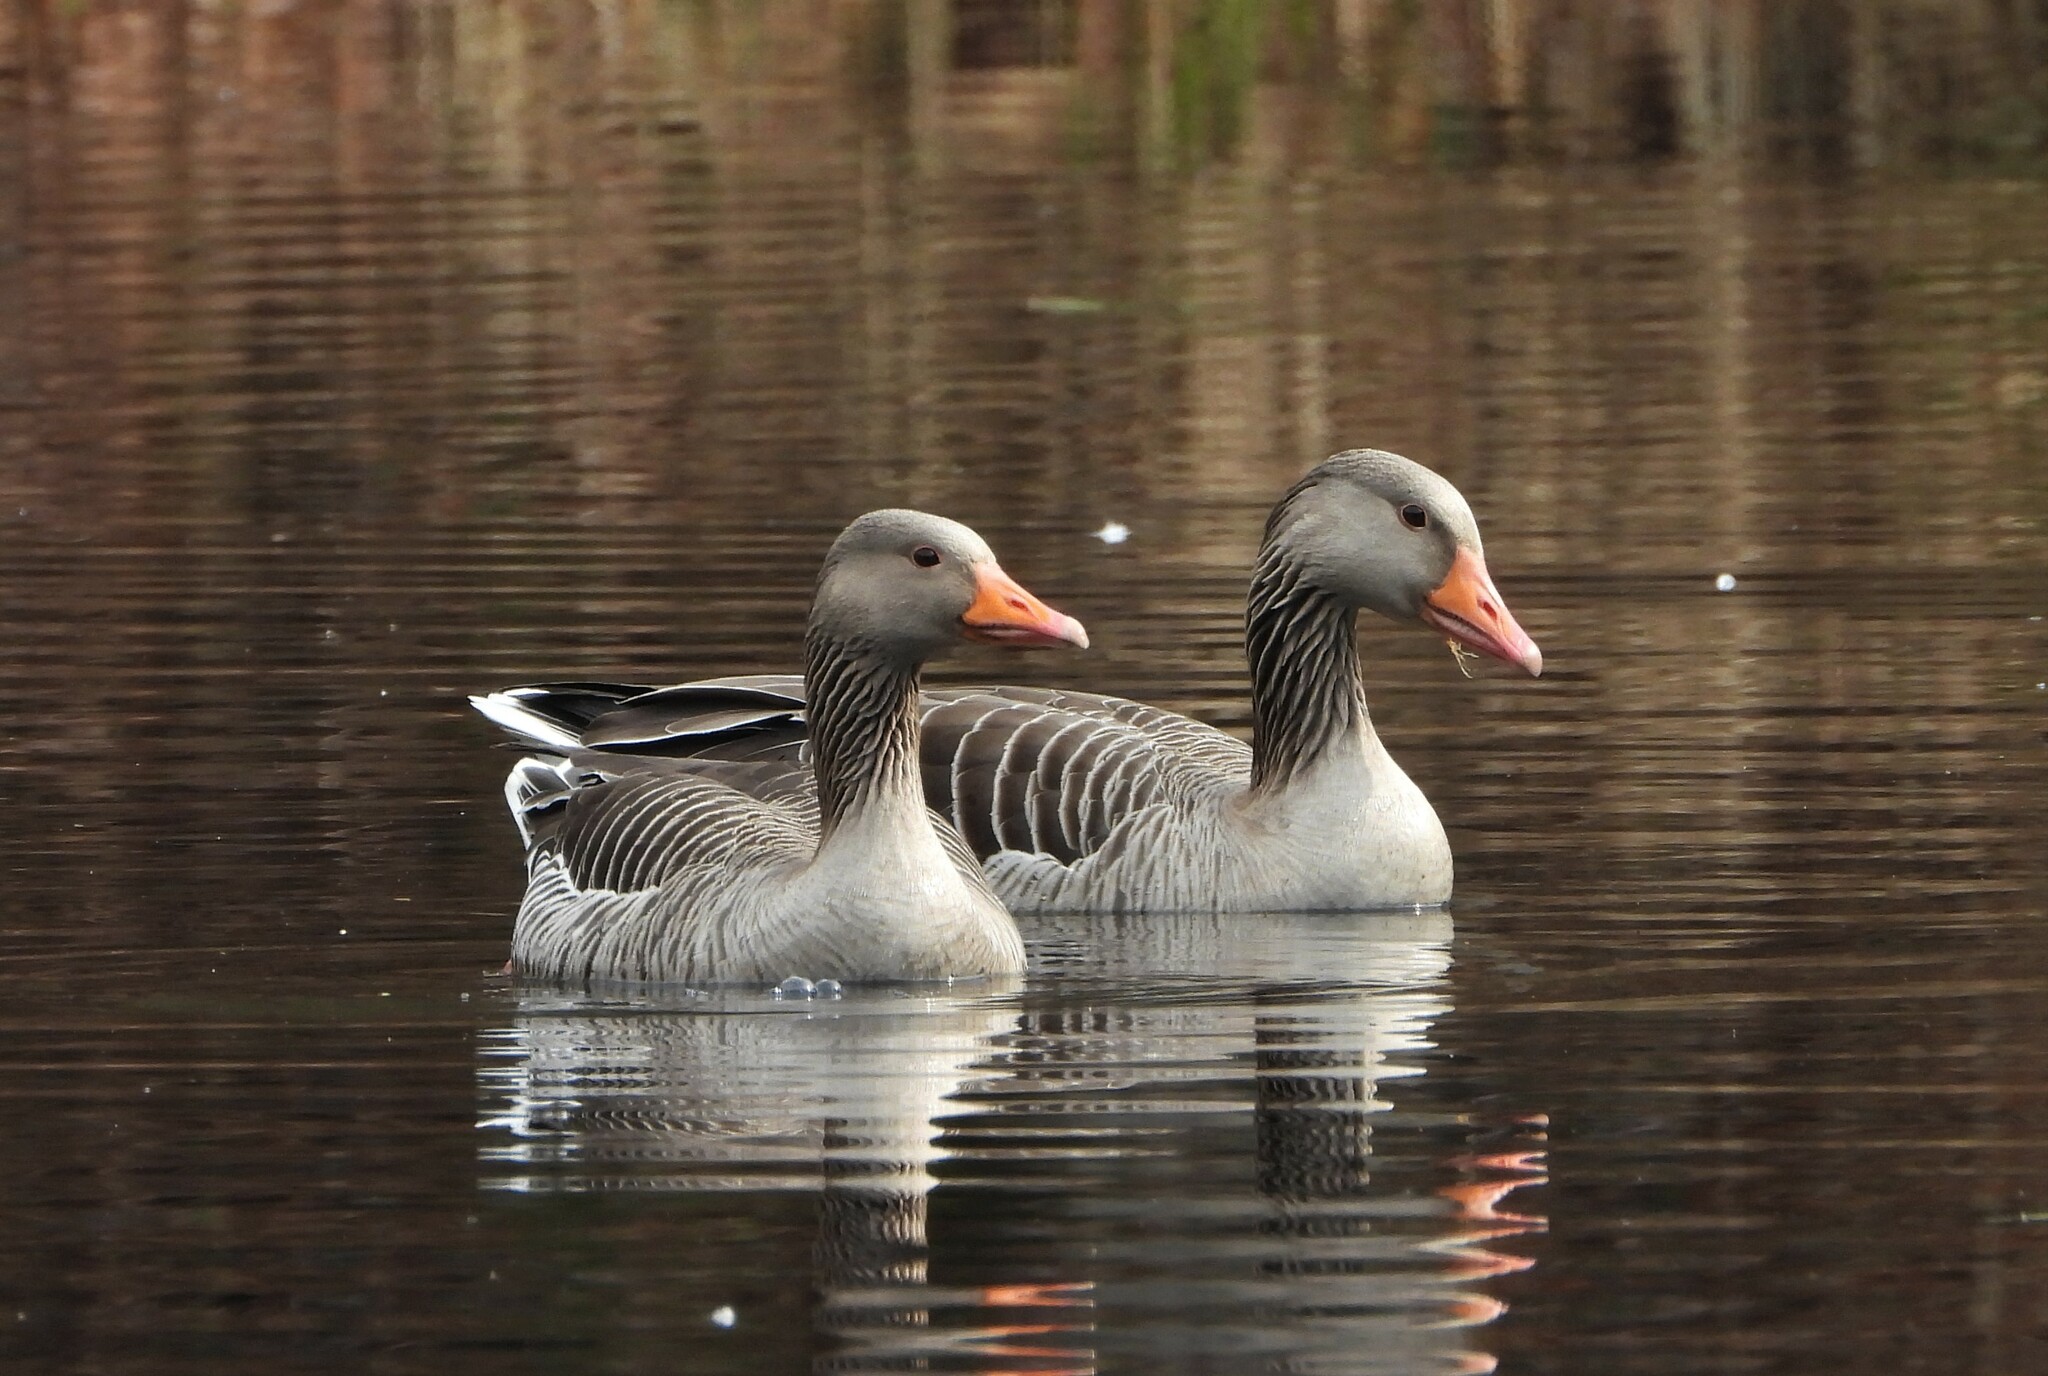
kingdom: Animalia
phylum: Chordata
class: Aves
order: Anseriformes
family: Anatidae
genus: Anser
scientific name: Anser anser
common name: Greylag goose
